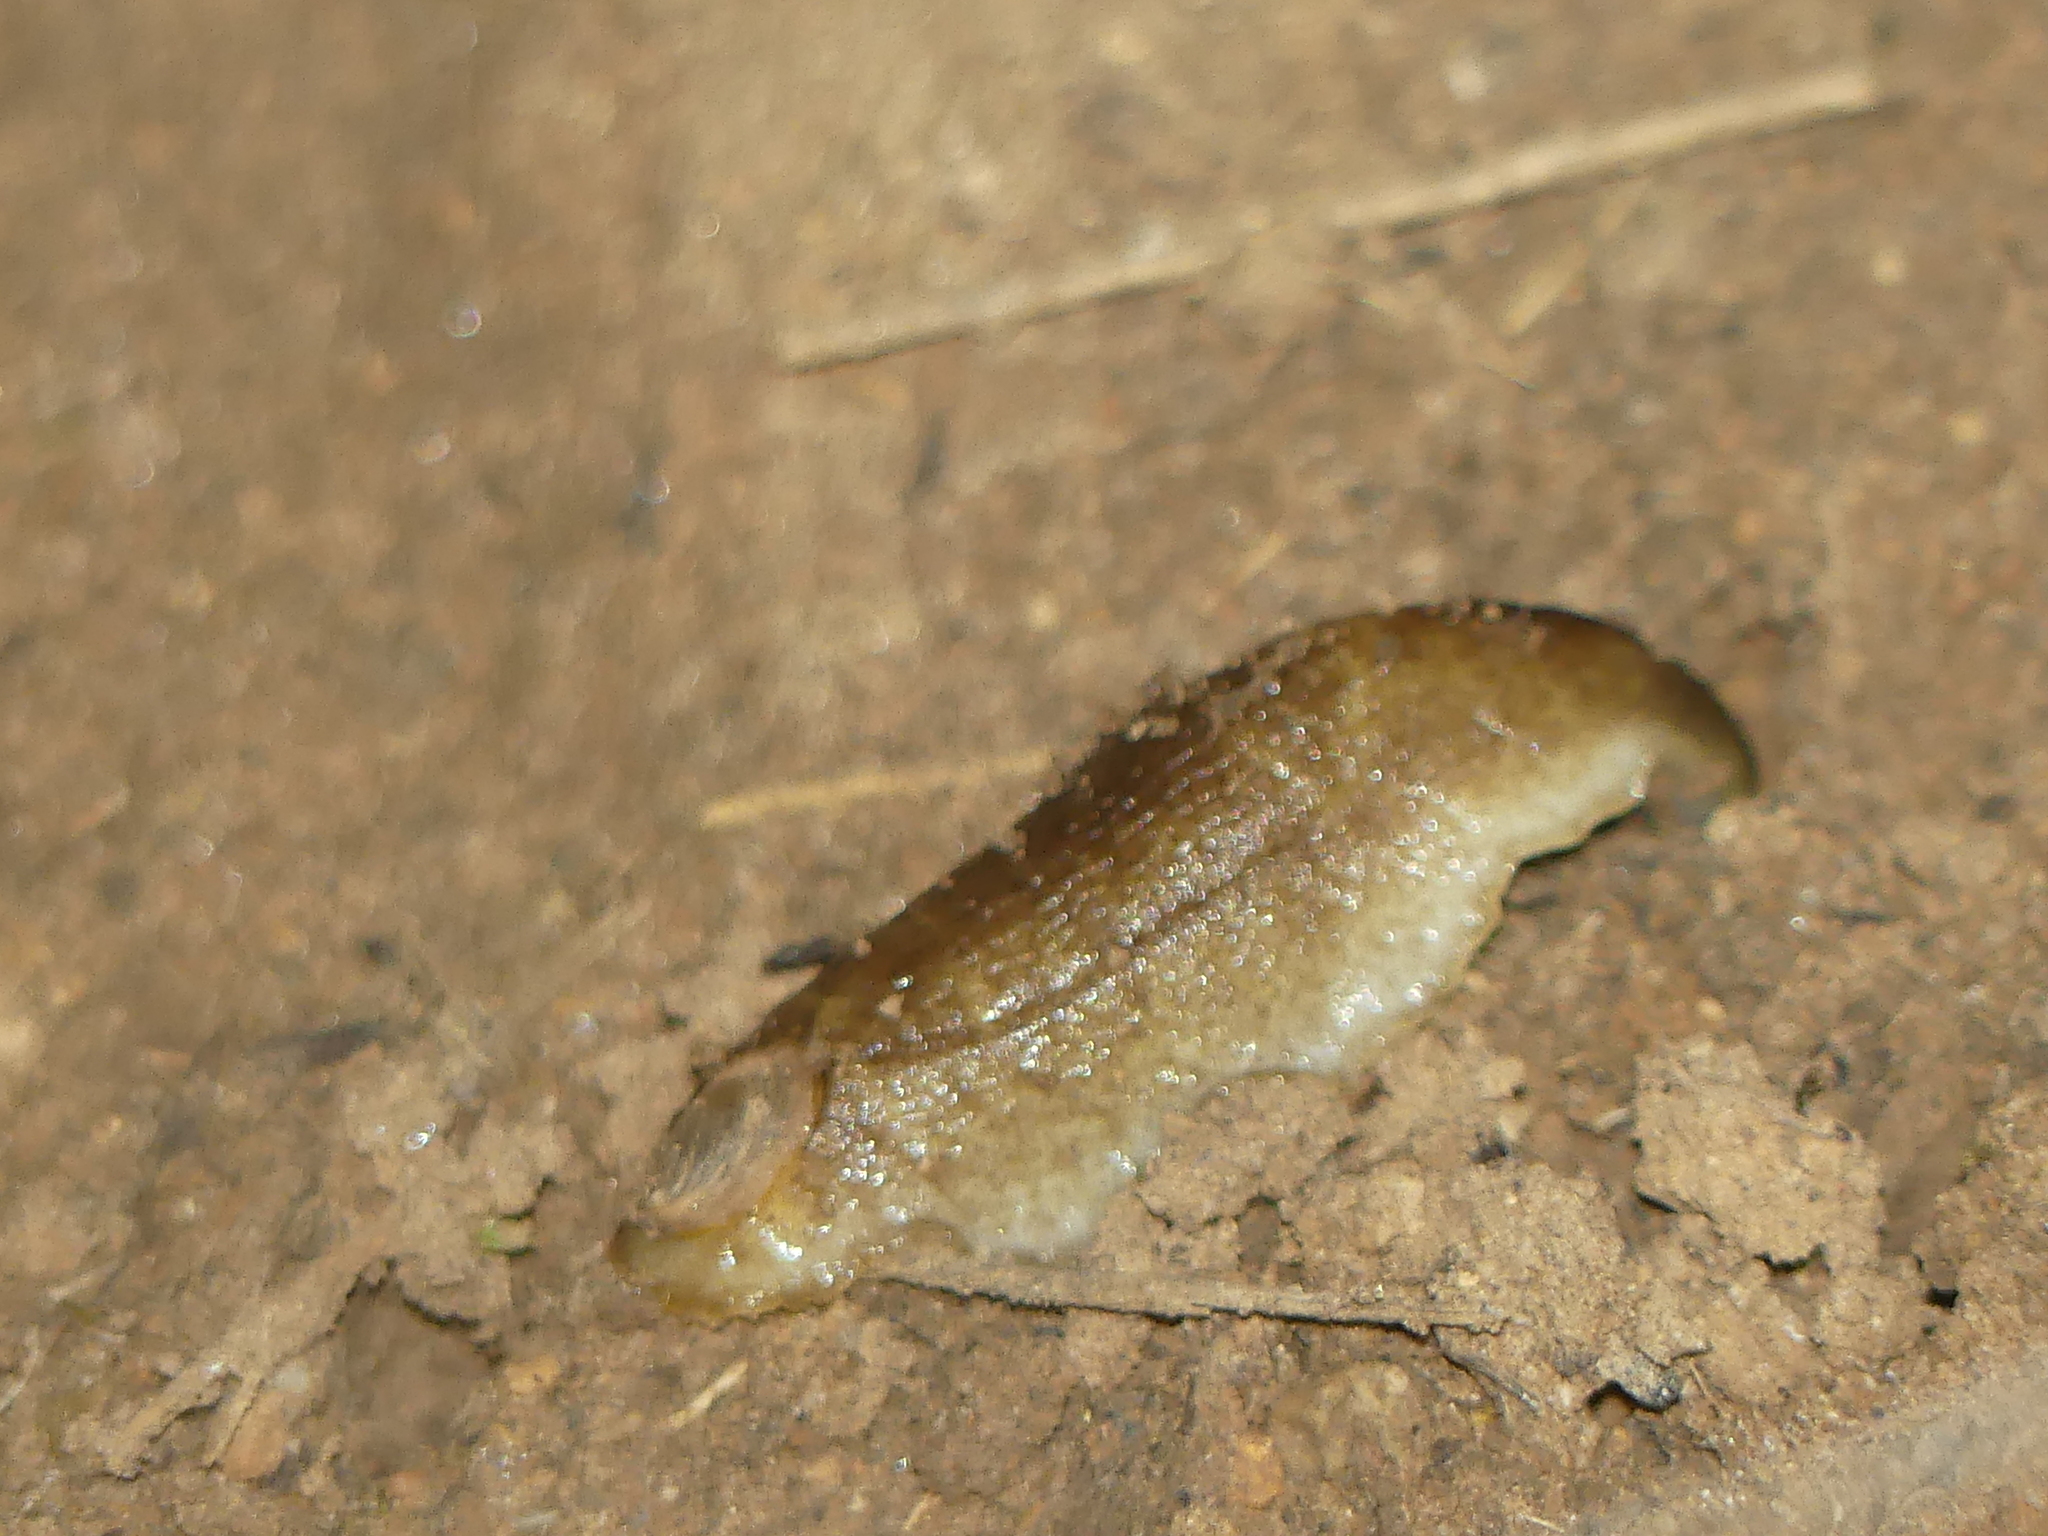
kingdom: Animalia
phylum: Mollusca
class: Gastropoda
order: Stylommatophora
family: Testacellidae
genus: Testacella
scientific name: Testacella haliotidea
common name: Shelled slug
